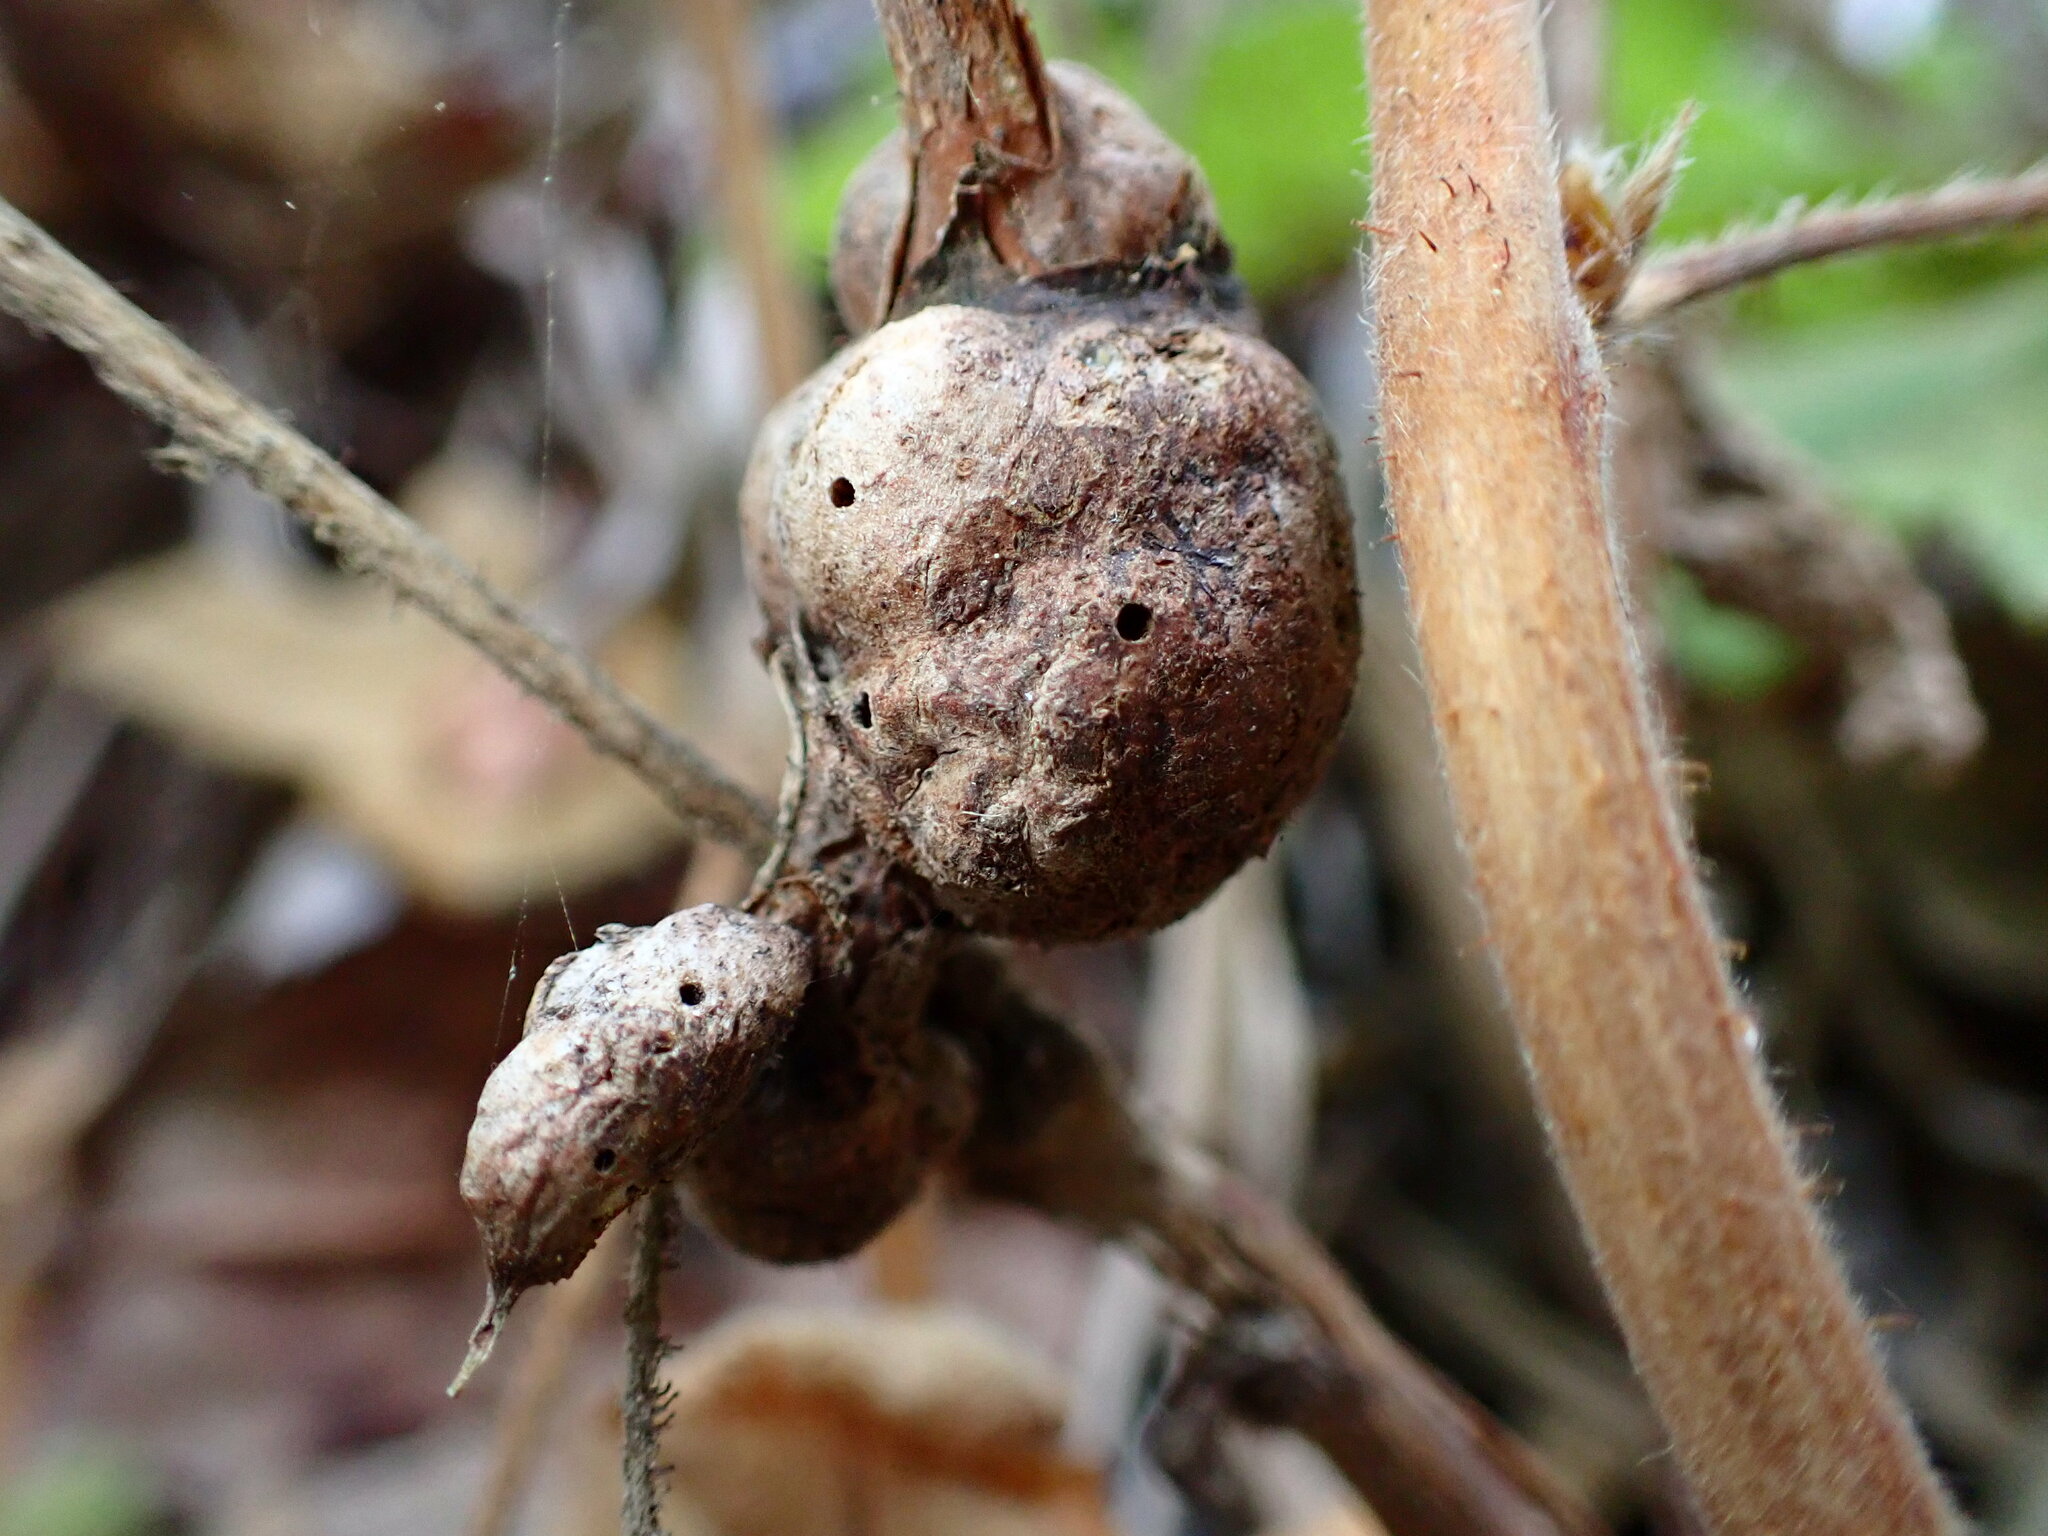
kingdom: Animalia
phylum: Arthropoda
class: Insecta
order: Hymenoptera
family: Cynipidae
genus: Diastrophus
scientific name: Diastrophus
